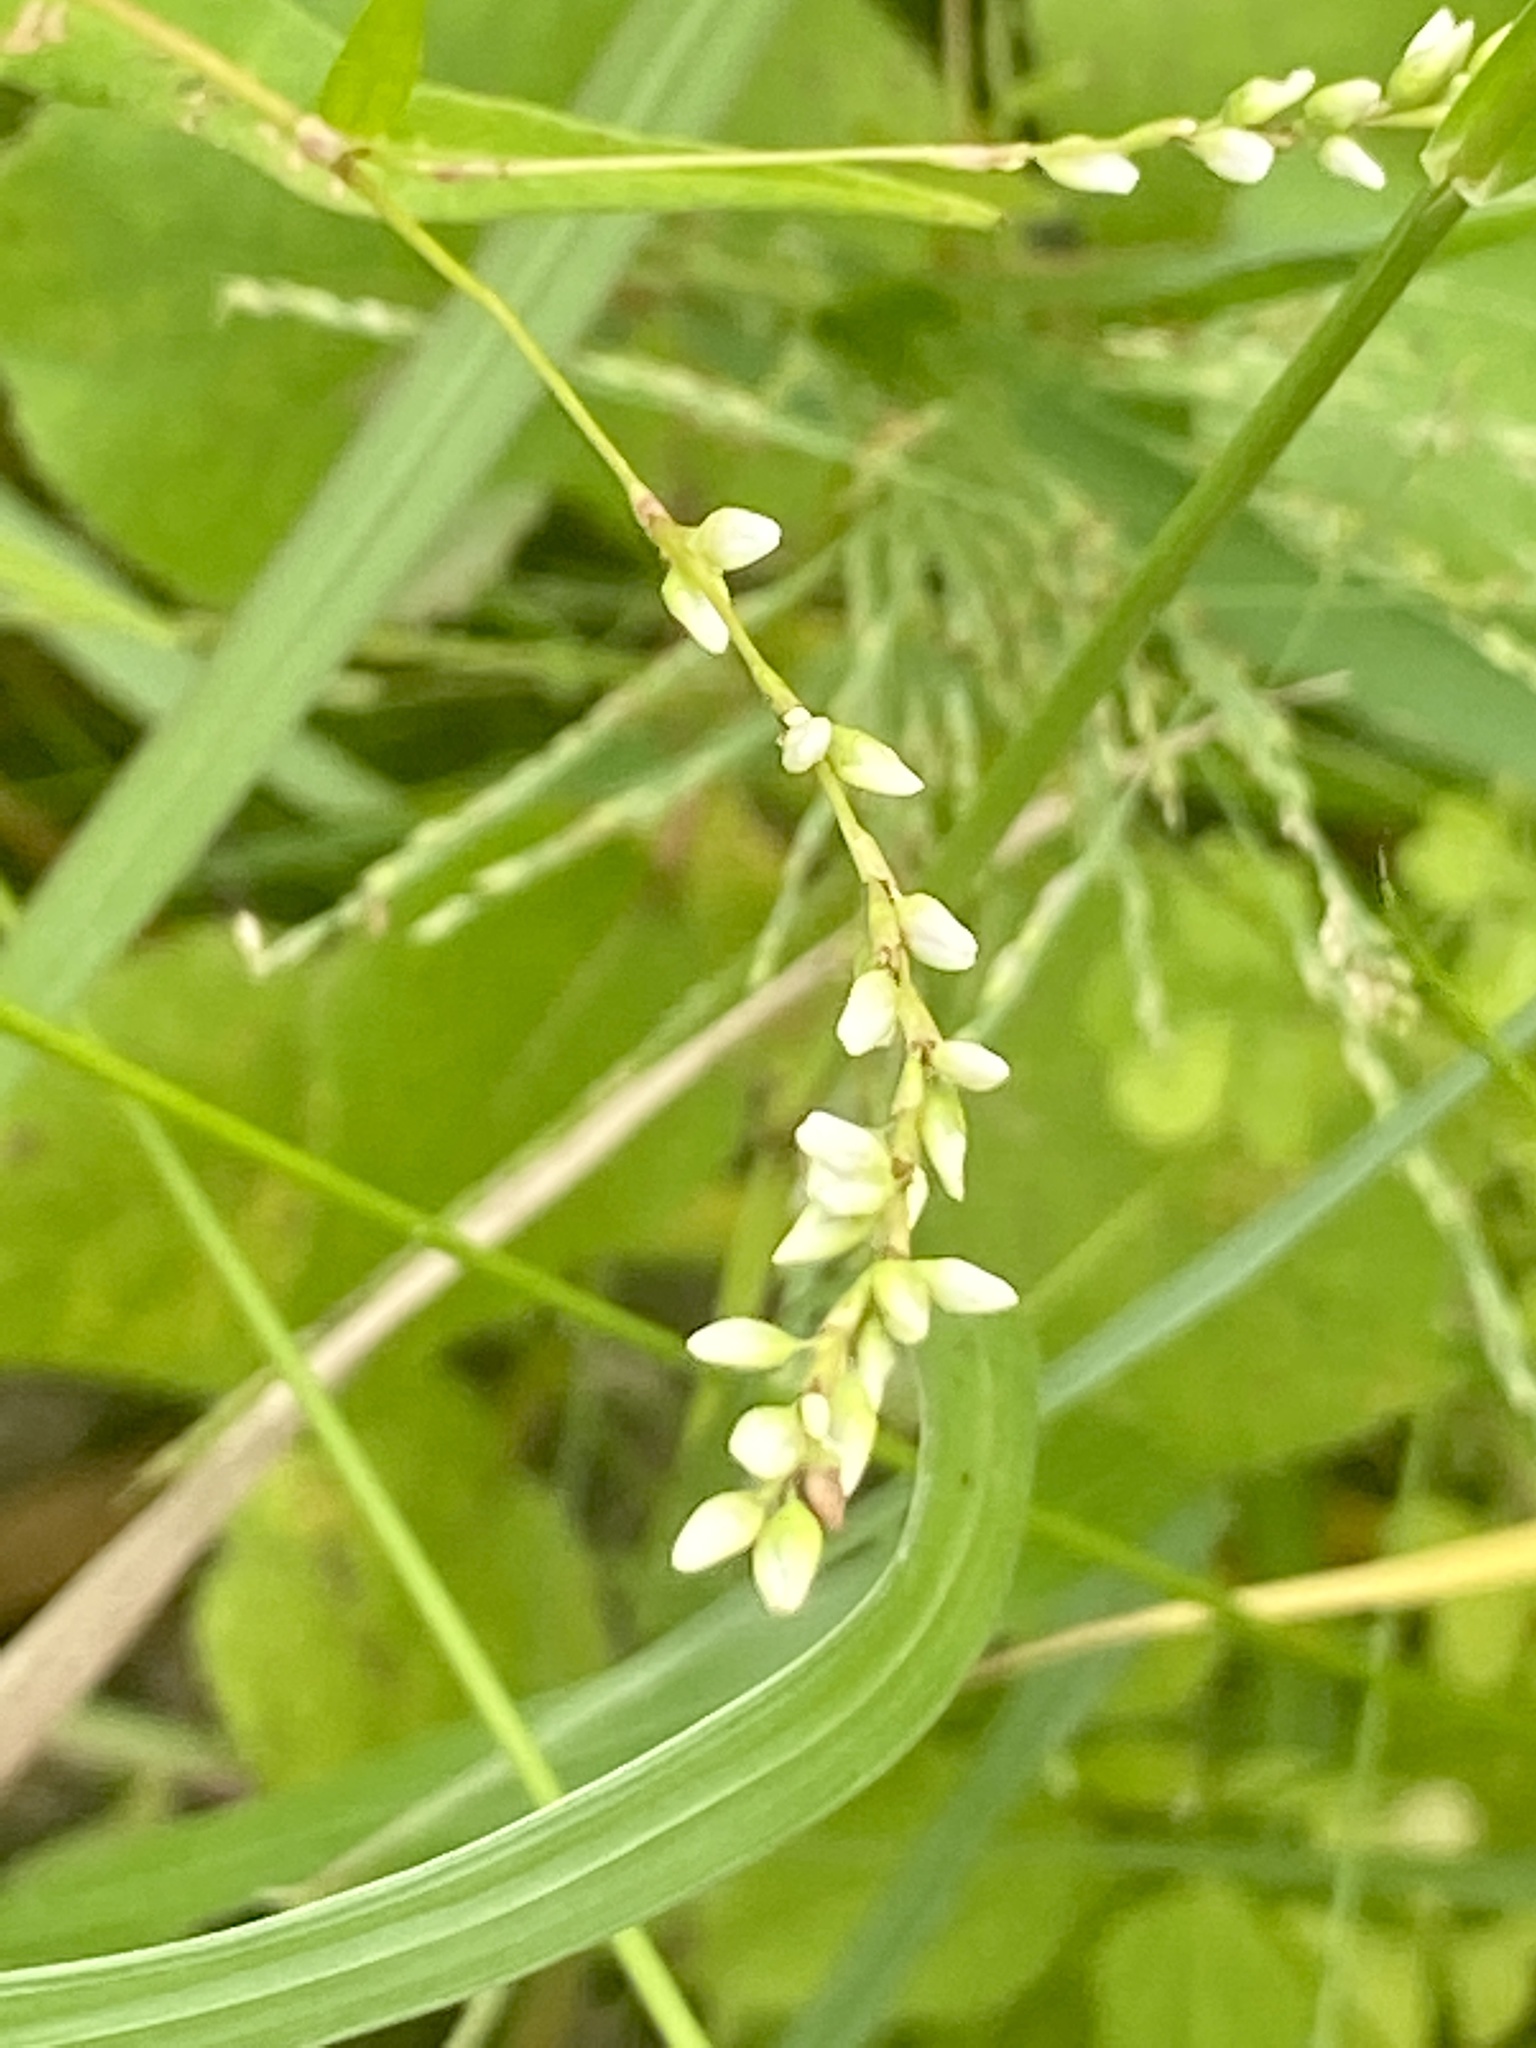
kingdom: Plantae
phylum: Tracheophyta
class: Magnoliopsida
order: Caryophyllales
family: Polygonaceae
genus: Persicaria
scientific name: Persicaria punctata
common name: Dotted smartweed
